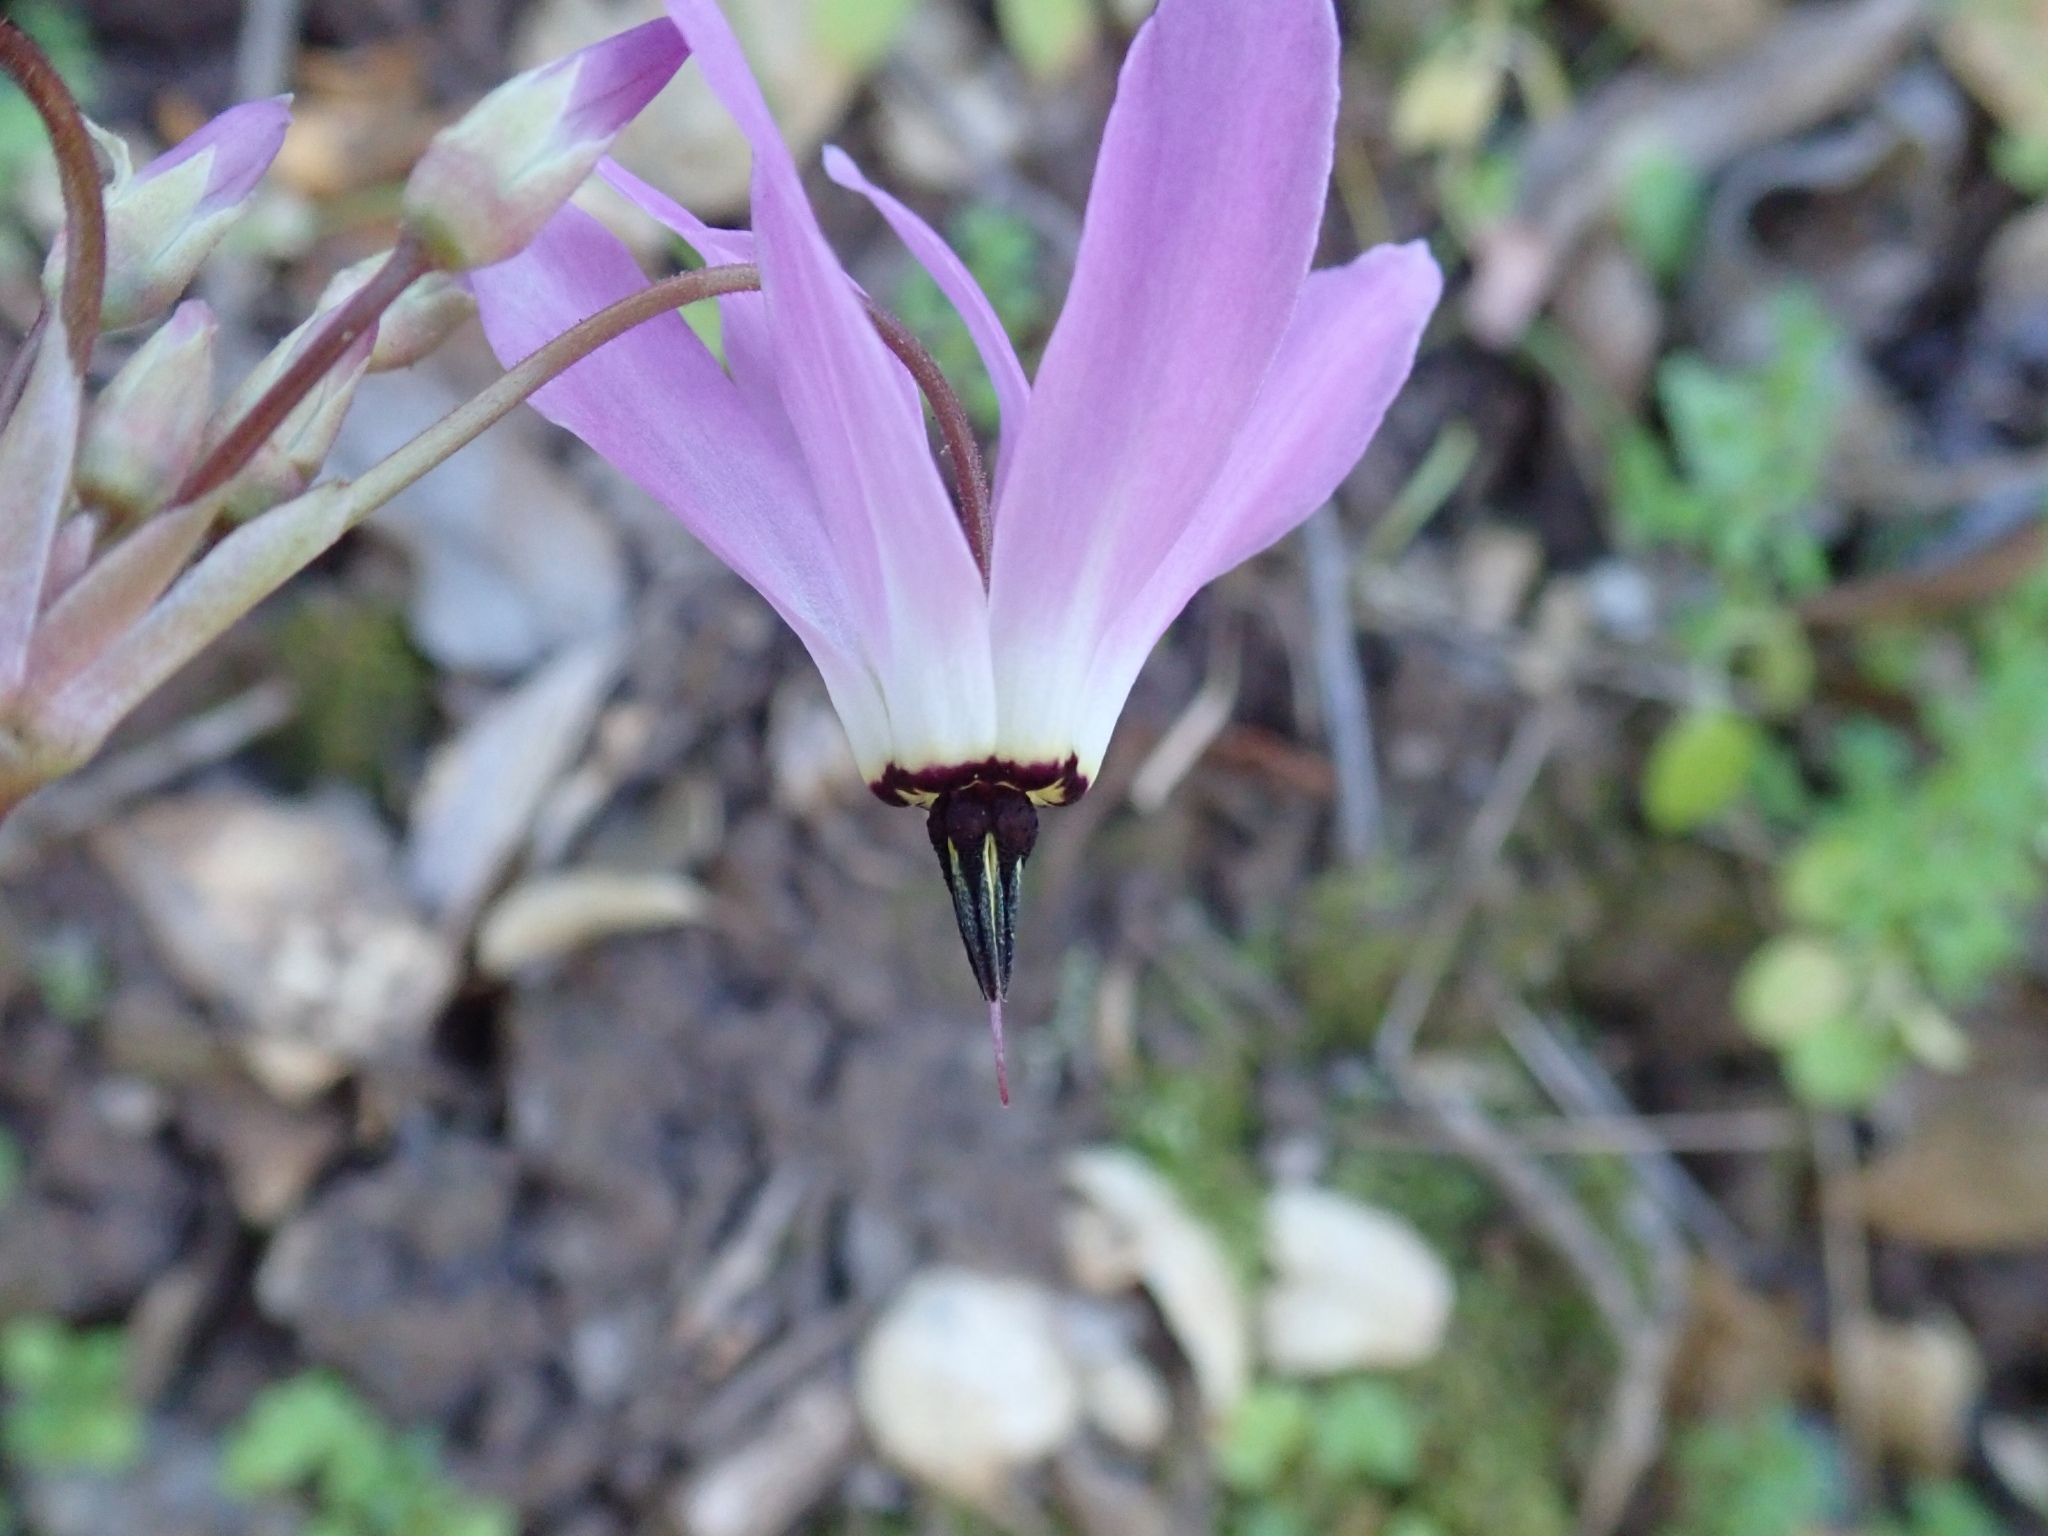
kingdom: Plantae
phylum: Tracheophyta
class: Magnoliopsida
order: Ericales
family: Primulaceae
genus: Dodecatheon
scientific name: Dodecatheon hendersonii
